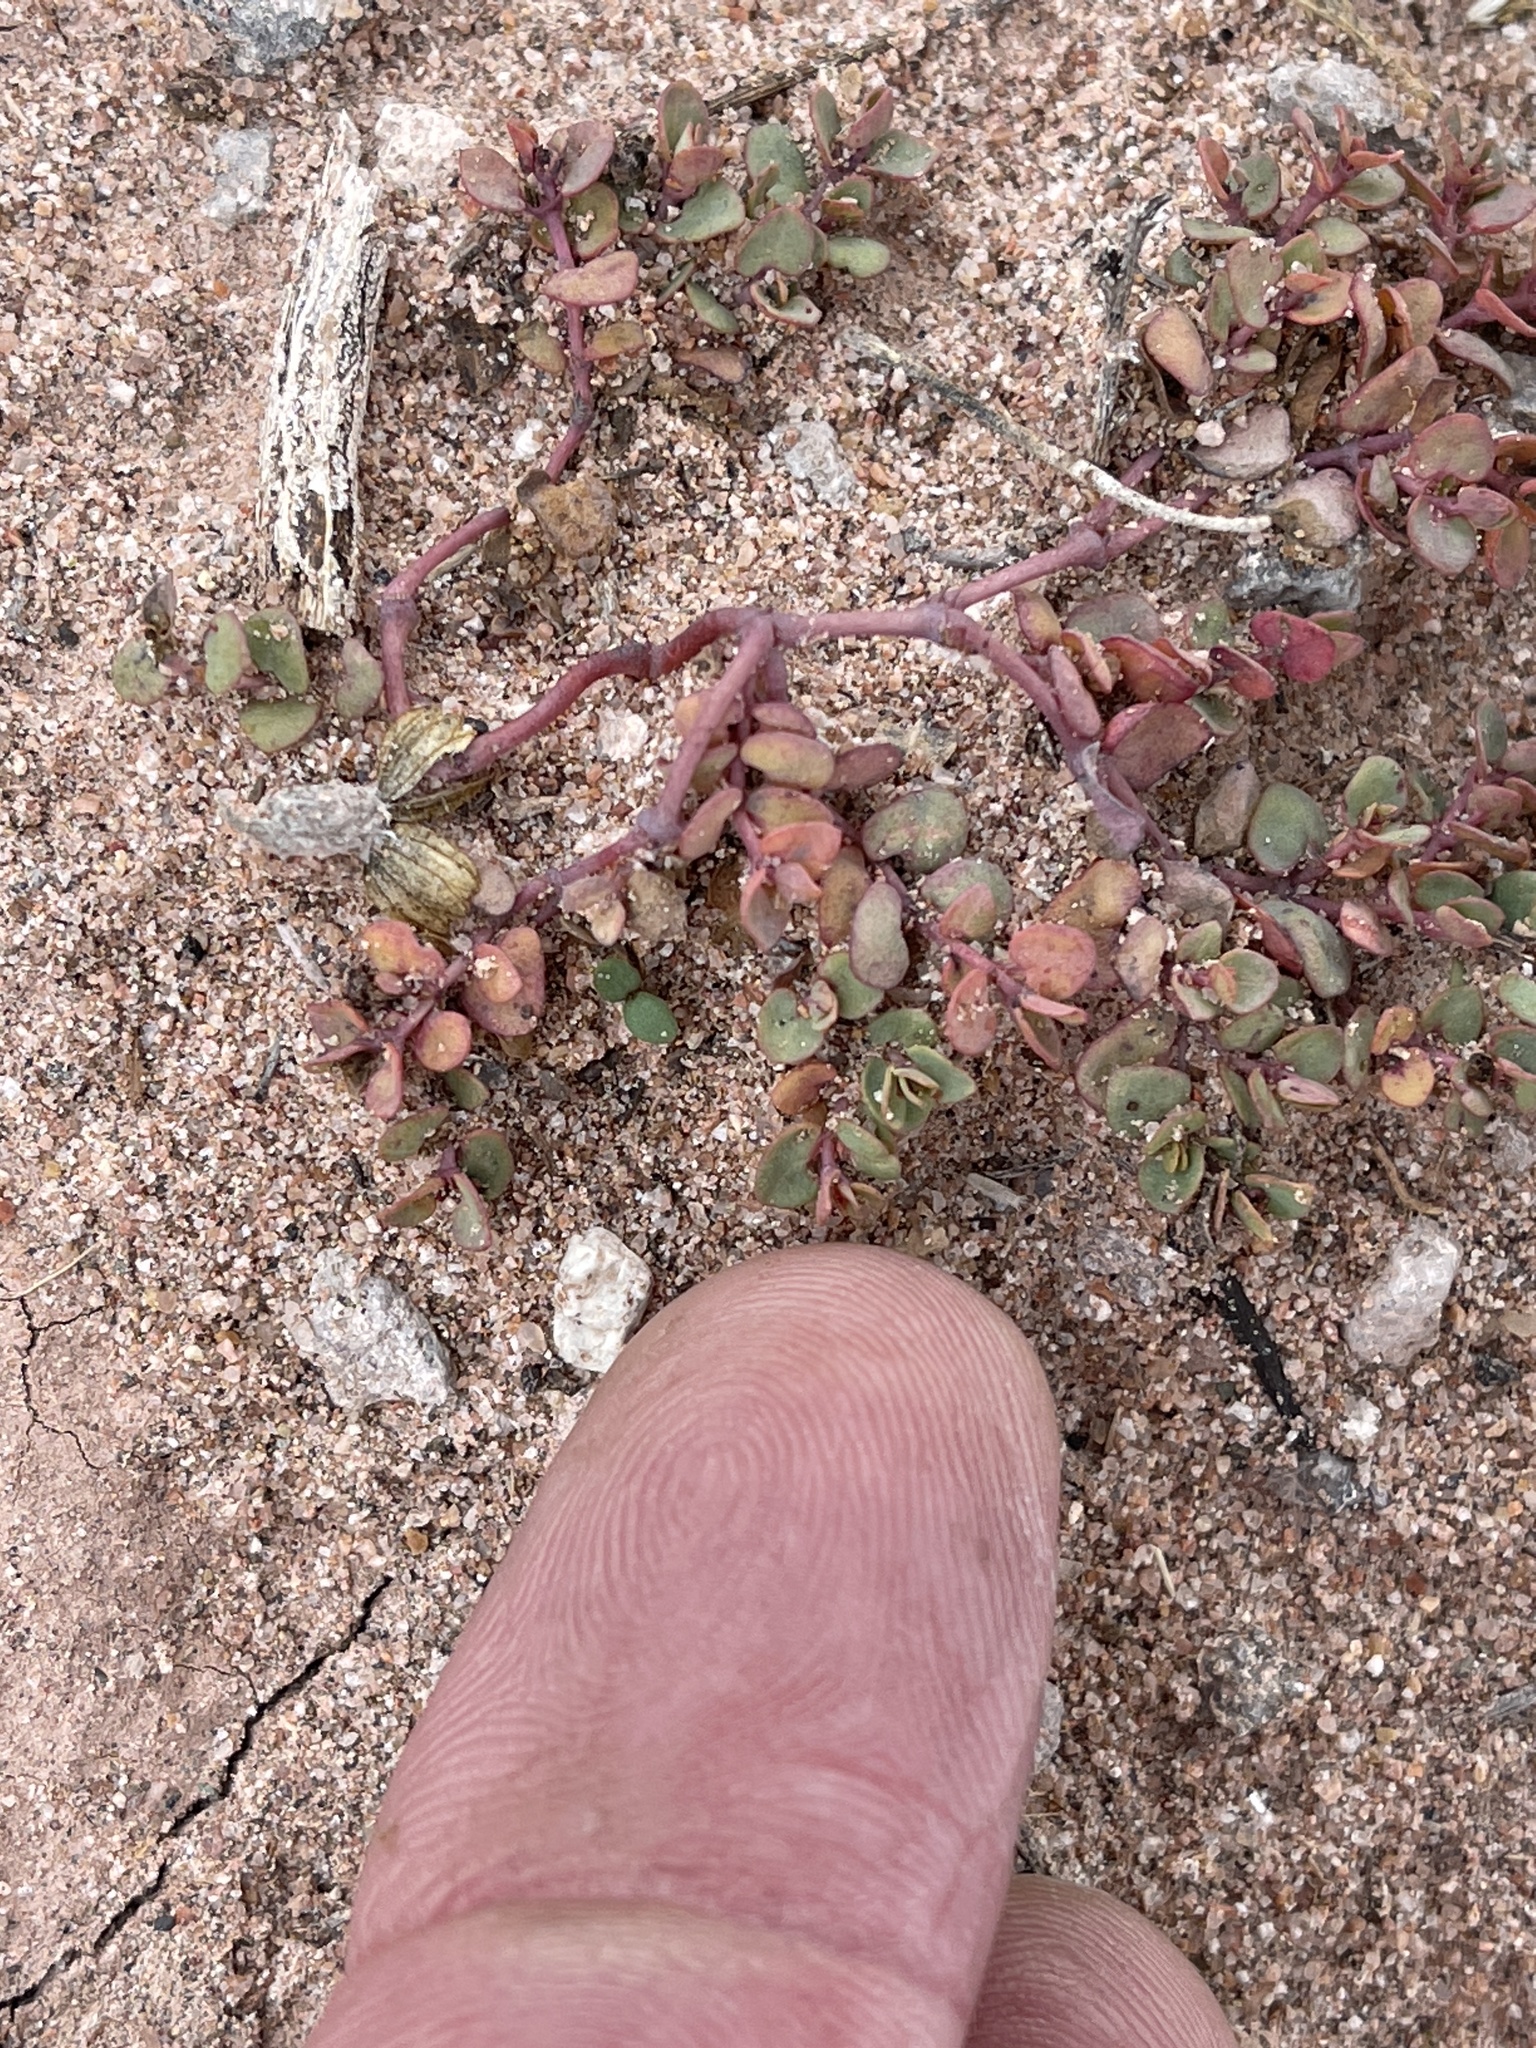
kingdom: Plantae
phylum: Tracheophyta
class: Magnoliopsida
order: Malpighiales
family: Euphorbiaceae
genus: Euphorbia
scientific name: Euphorbia fendleri
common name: Fendler's euphorbia
